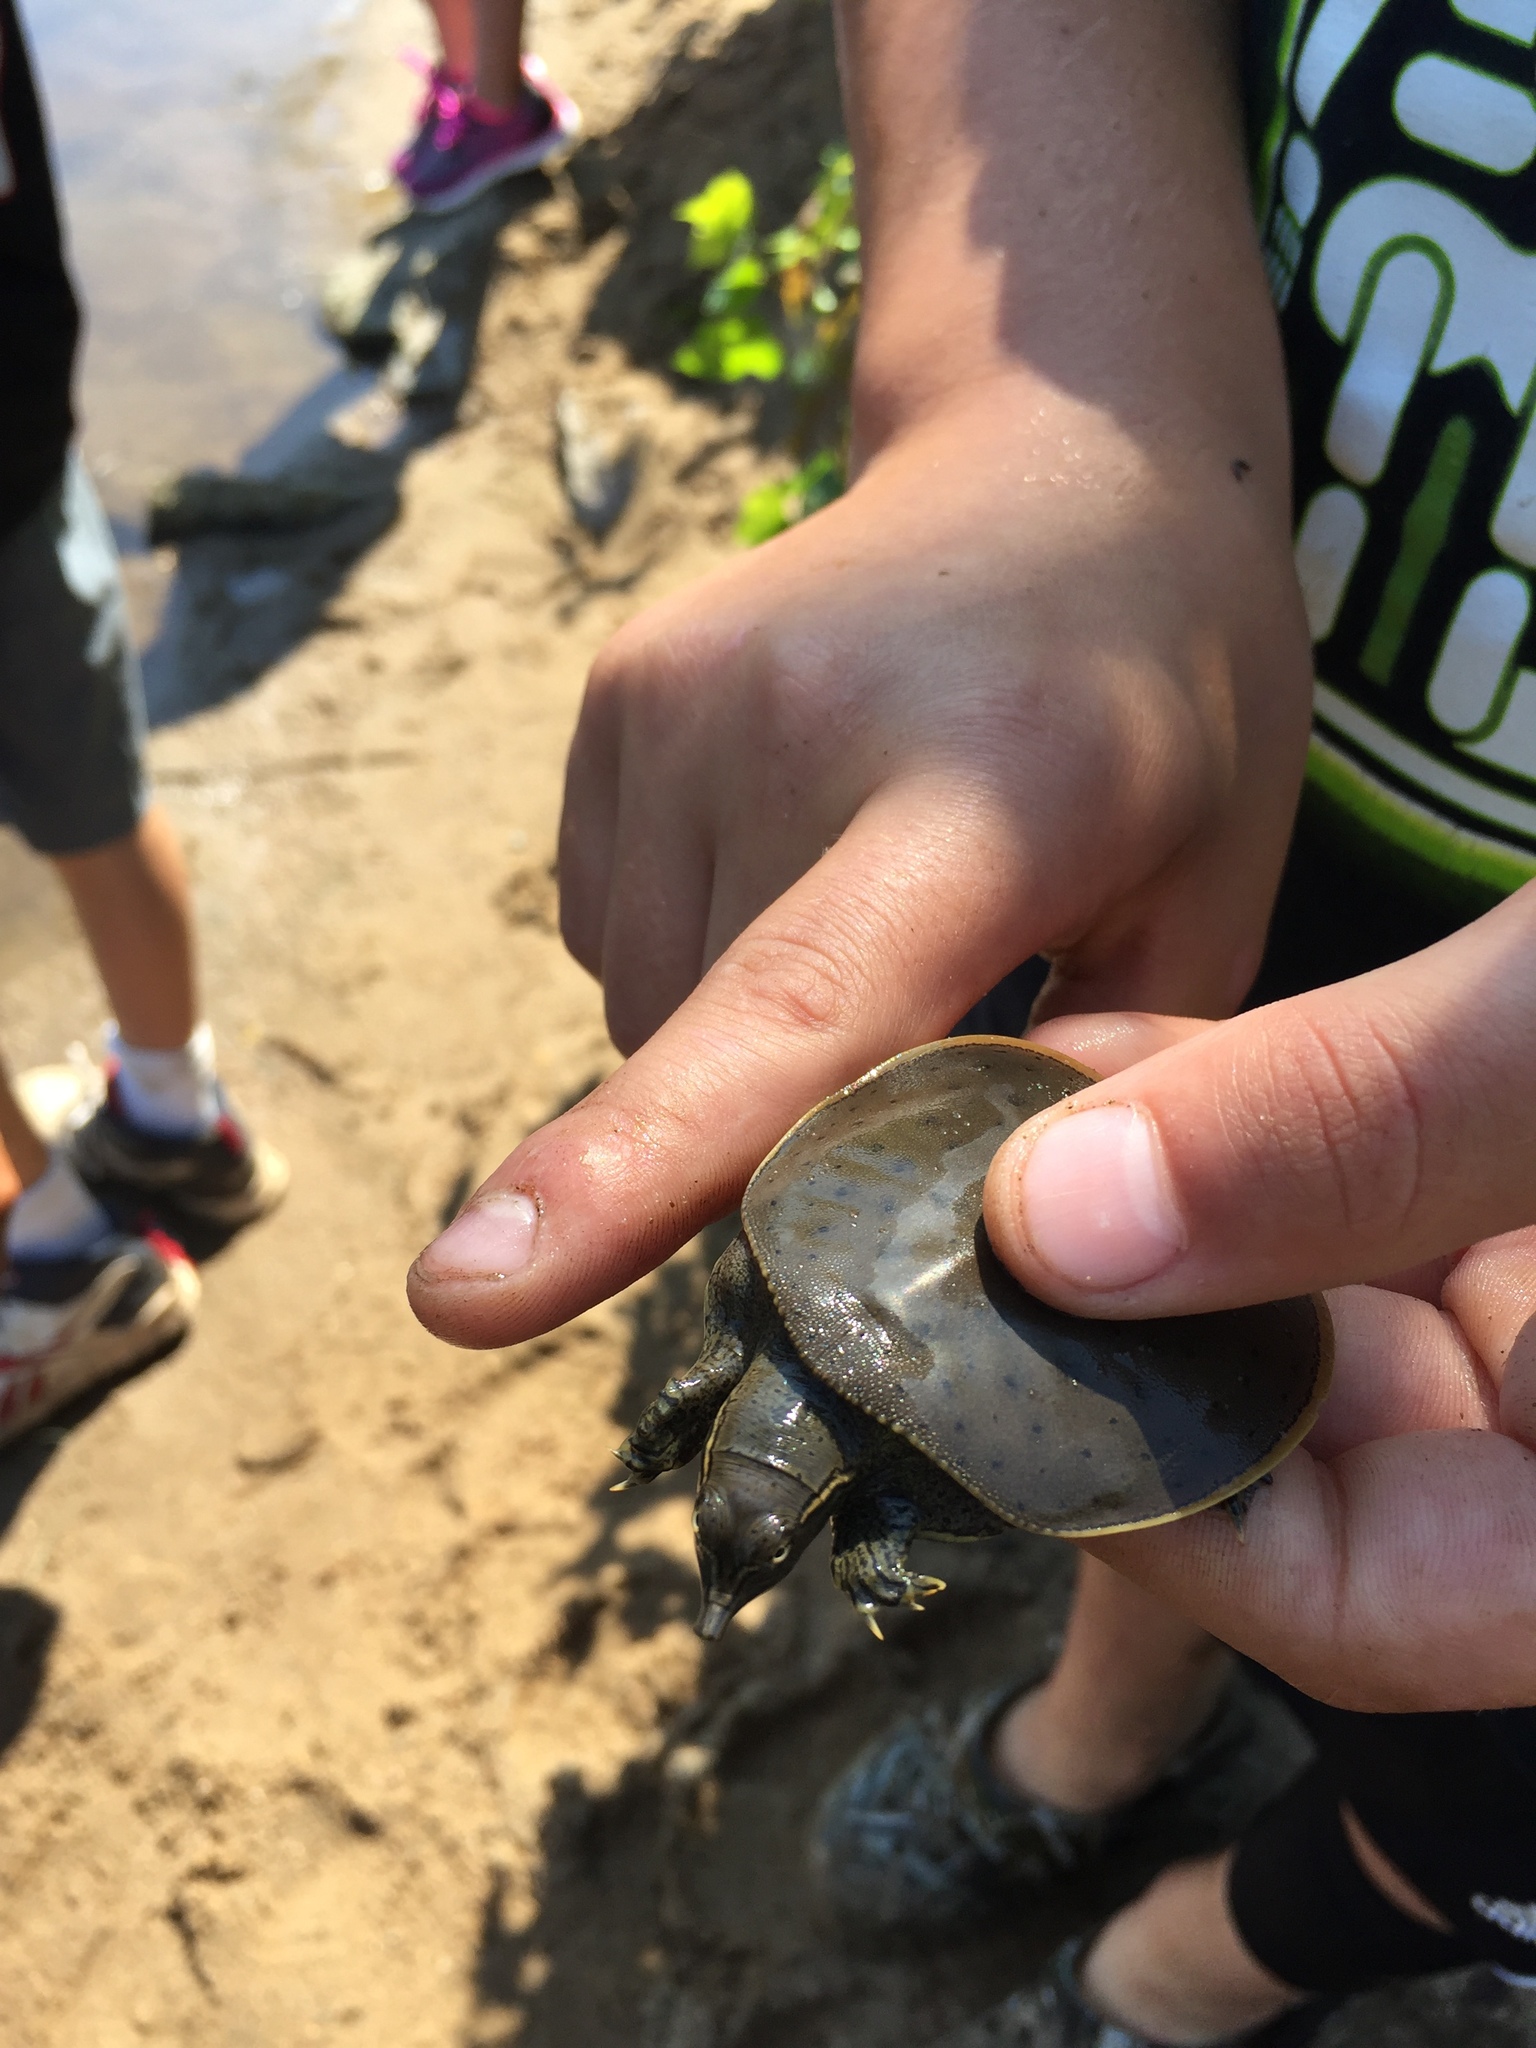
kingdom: Animalia
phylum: Chordata
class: Testudines
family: Trionychidae
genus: Apalone
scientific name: Apalone spinifera
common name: Spiny softshell turtle
